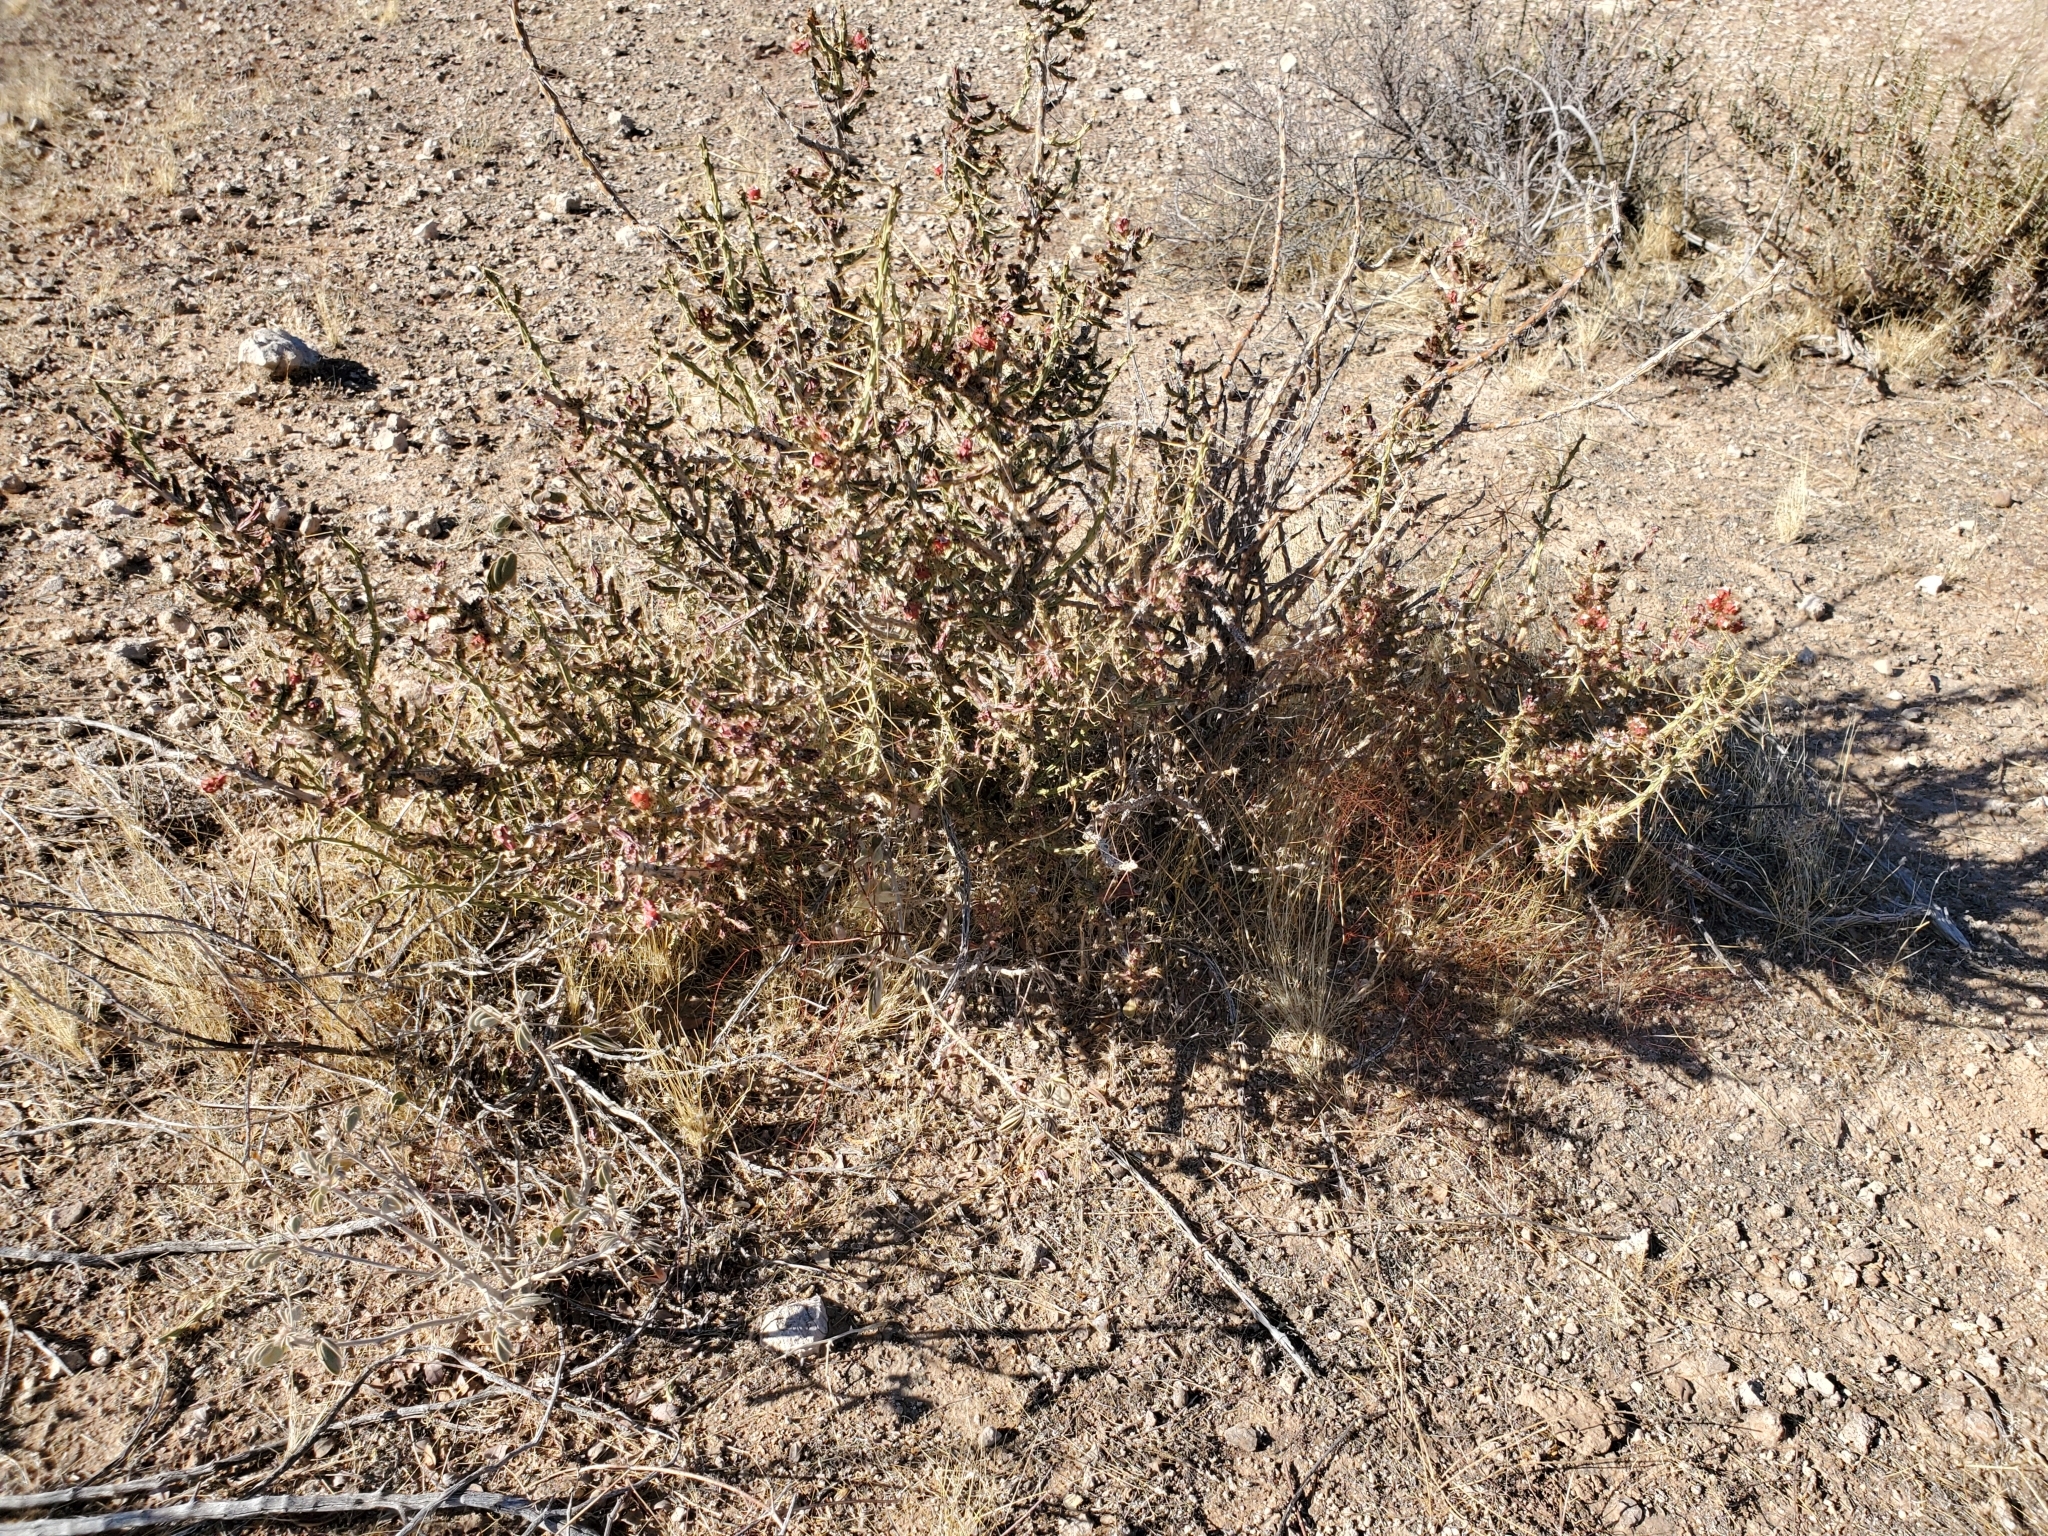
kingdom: Plantae
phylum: Tracheophyta
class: Magnoliopsida
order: Caryophyllales
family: Cactaceae
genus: Cylindropuntia
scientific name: Cylindropuntia leptocaulis
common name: Christmas cactus
